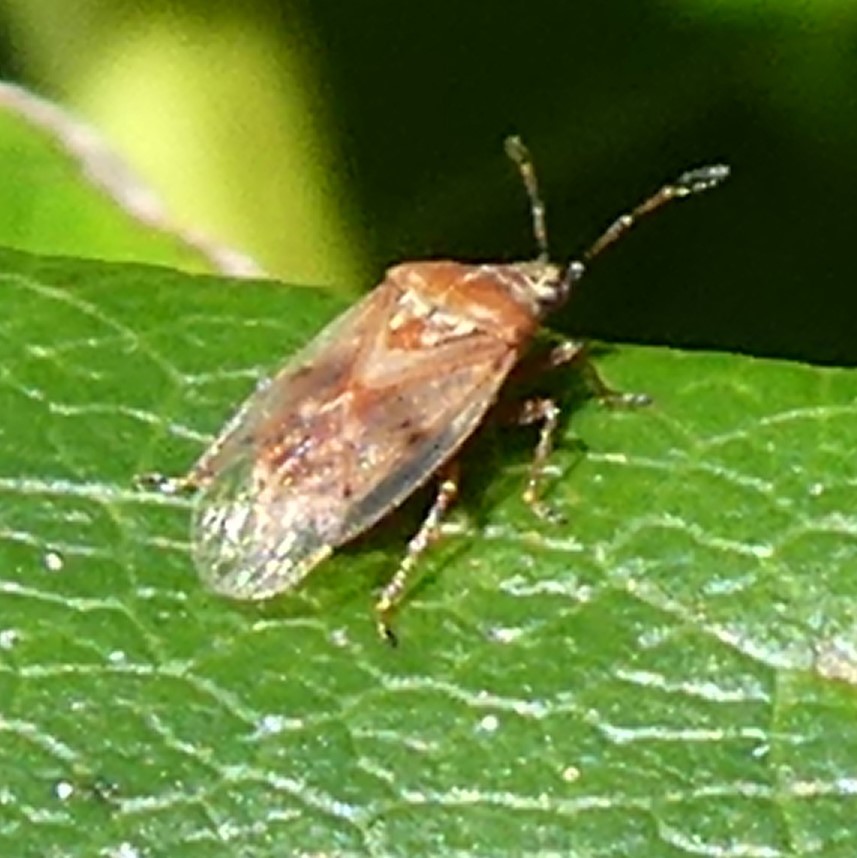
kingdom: Animalia
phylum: Arthropoda
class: Insecta
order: Hemiptera
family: Lygaeidae
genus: Kleidocerys
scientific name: Kleidocerys resedae
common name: Birch catkin bug
